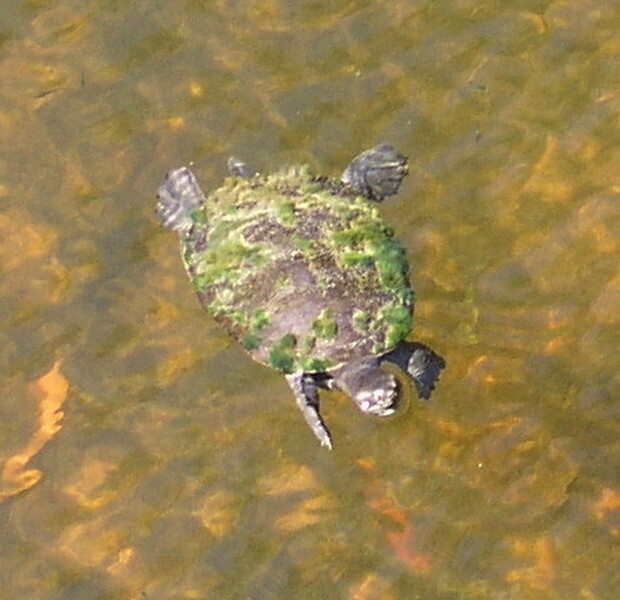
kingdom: Animalia
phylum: Chordata
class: Testudines
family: Chelidae
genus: Emydura
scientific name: Emydura macquarii
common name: Murray river turtle
